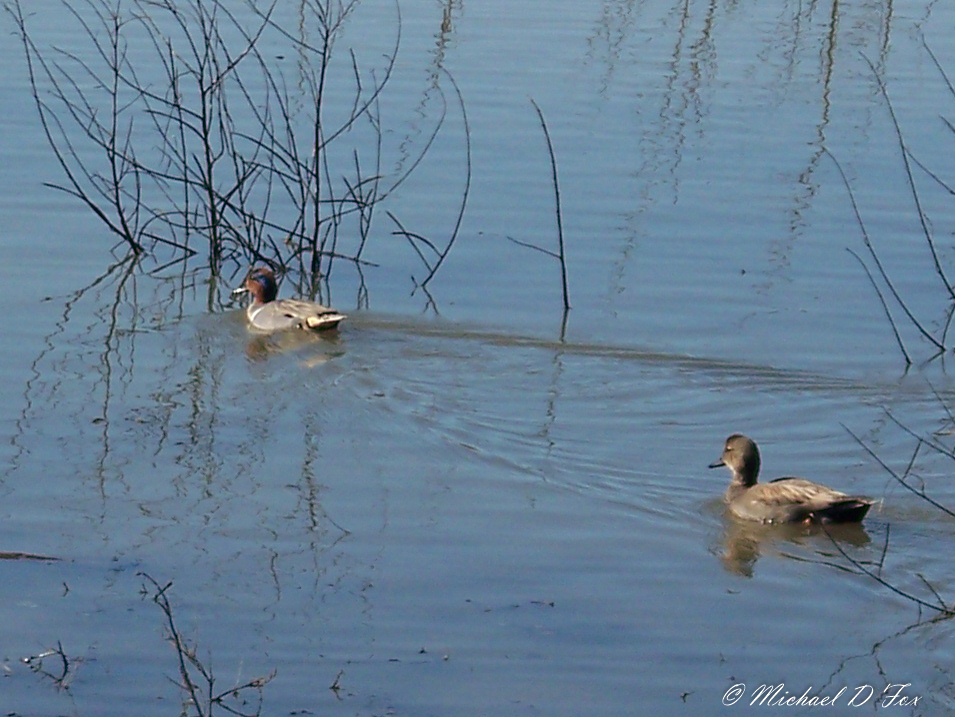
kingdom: Animalia
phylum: Chordata
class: Aves
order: Anseriformes
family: Anatidae
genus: Anas
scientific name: Anas crecca
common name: Eurasian teal
